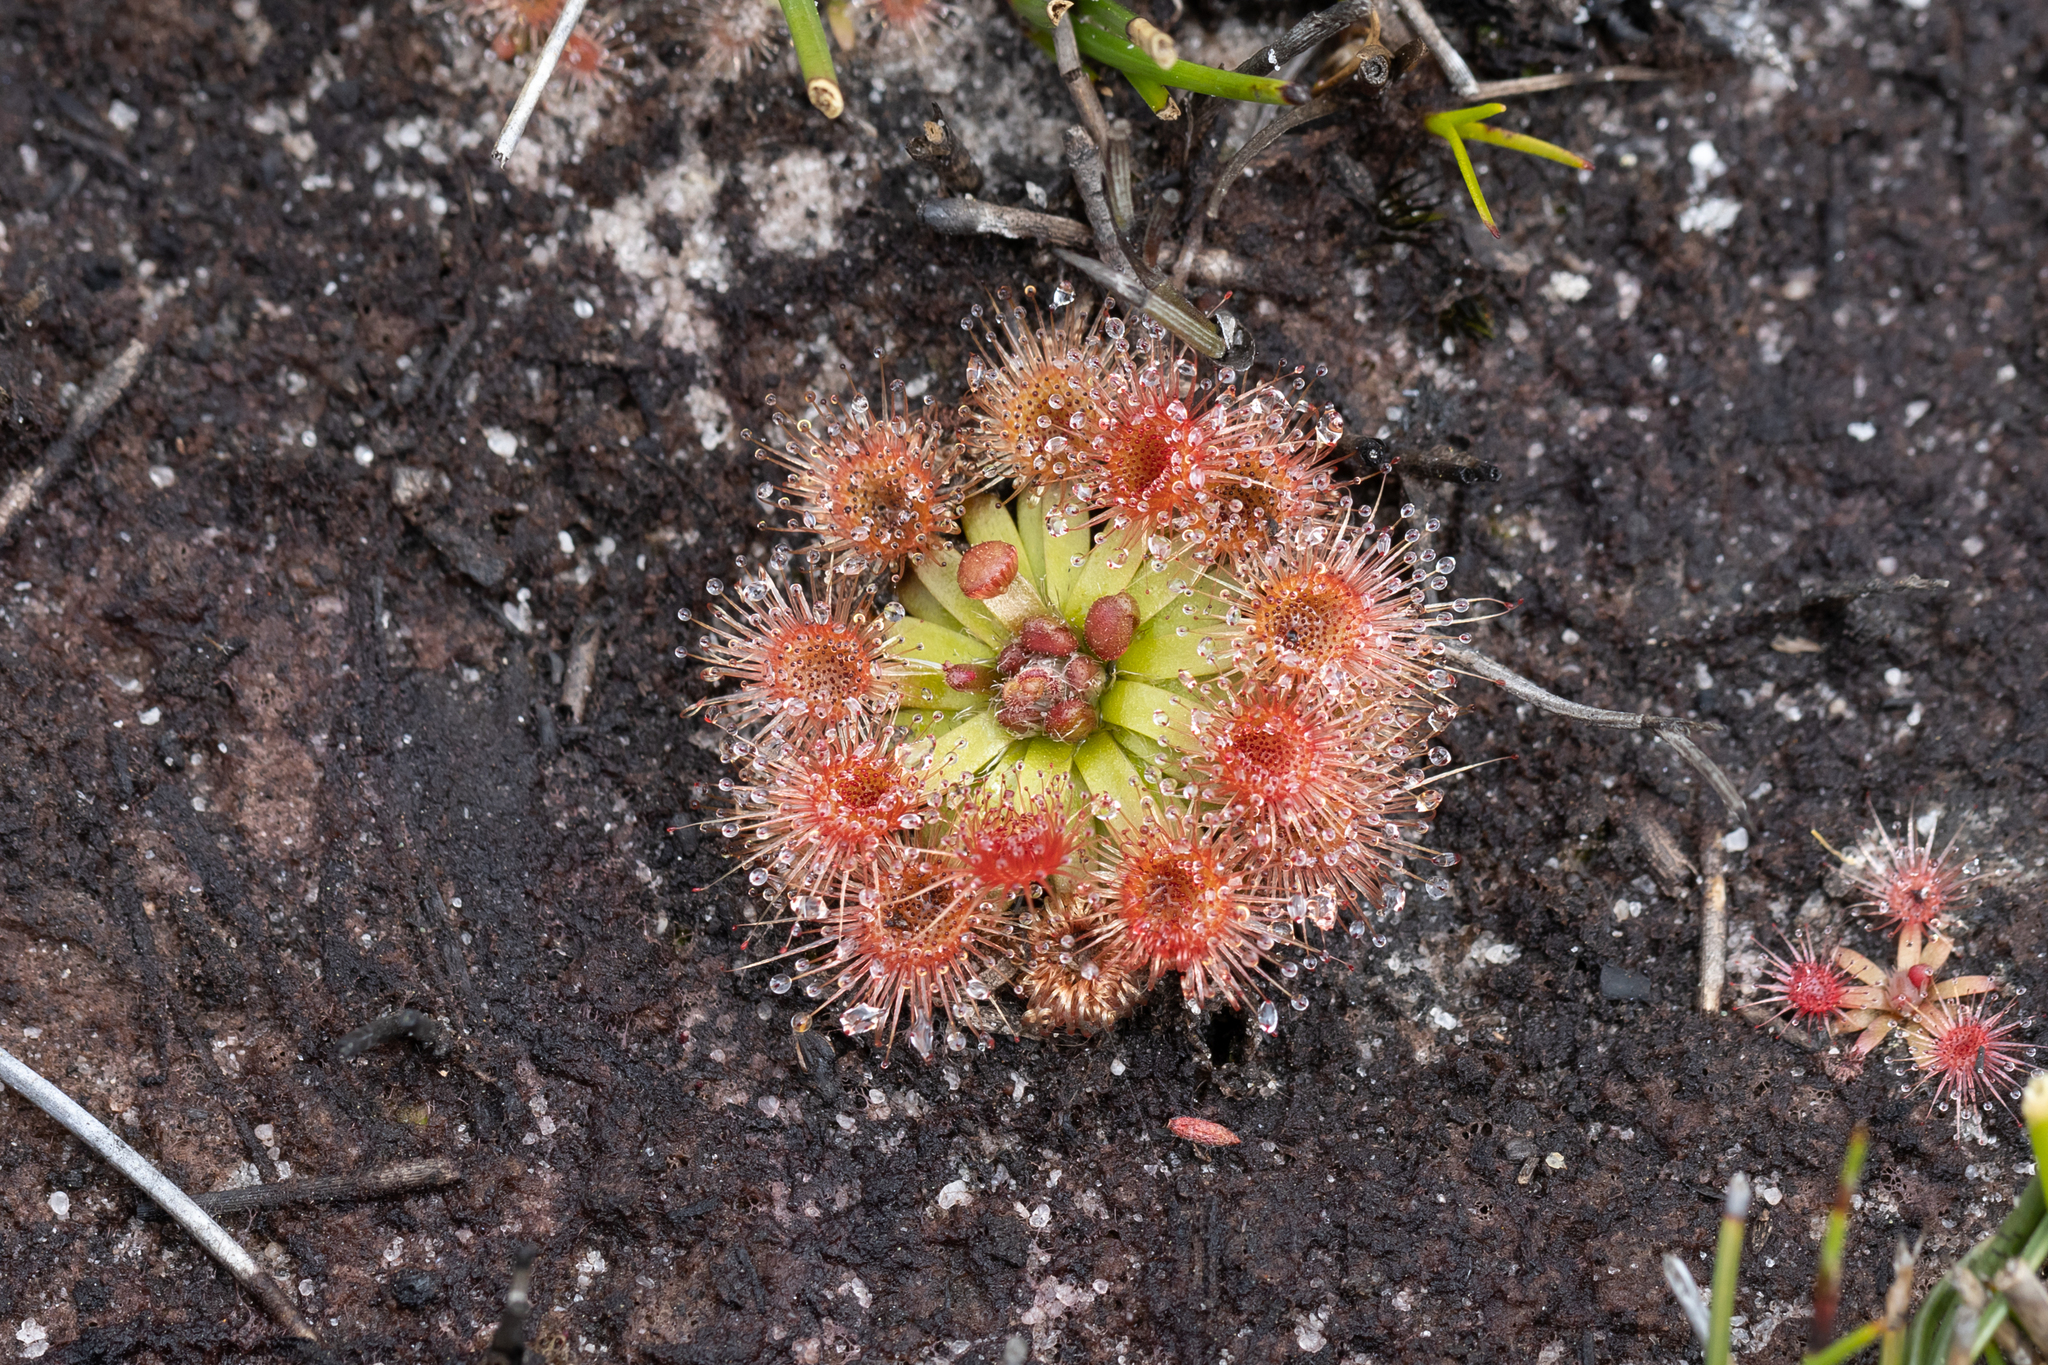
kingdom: Plantae
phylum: Tracheophyta
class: Magnoliopsida
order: Caryophyllales
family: Droseraceae
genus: Drosera
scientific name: Drosera pulchella
